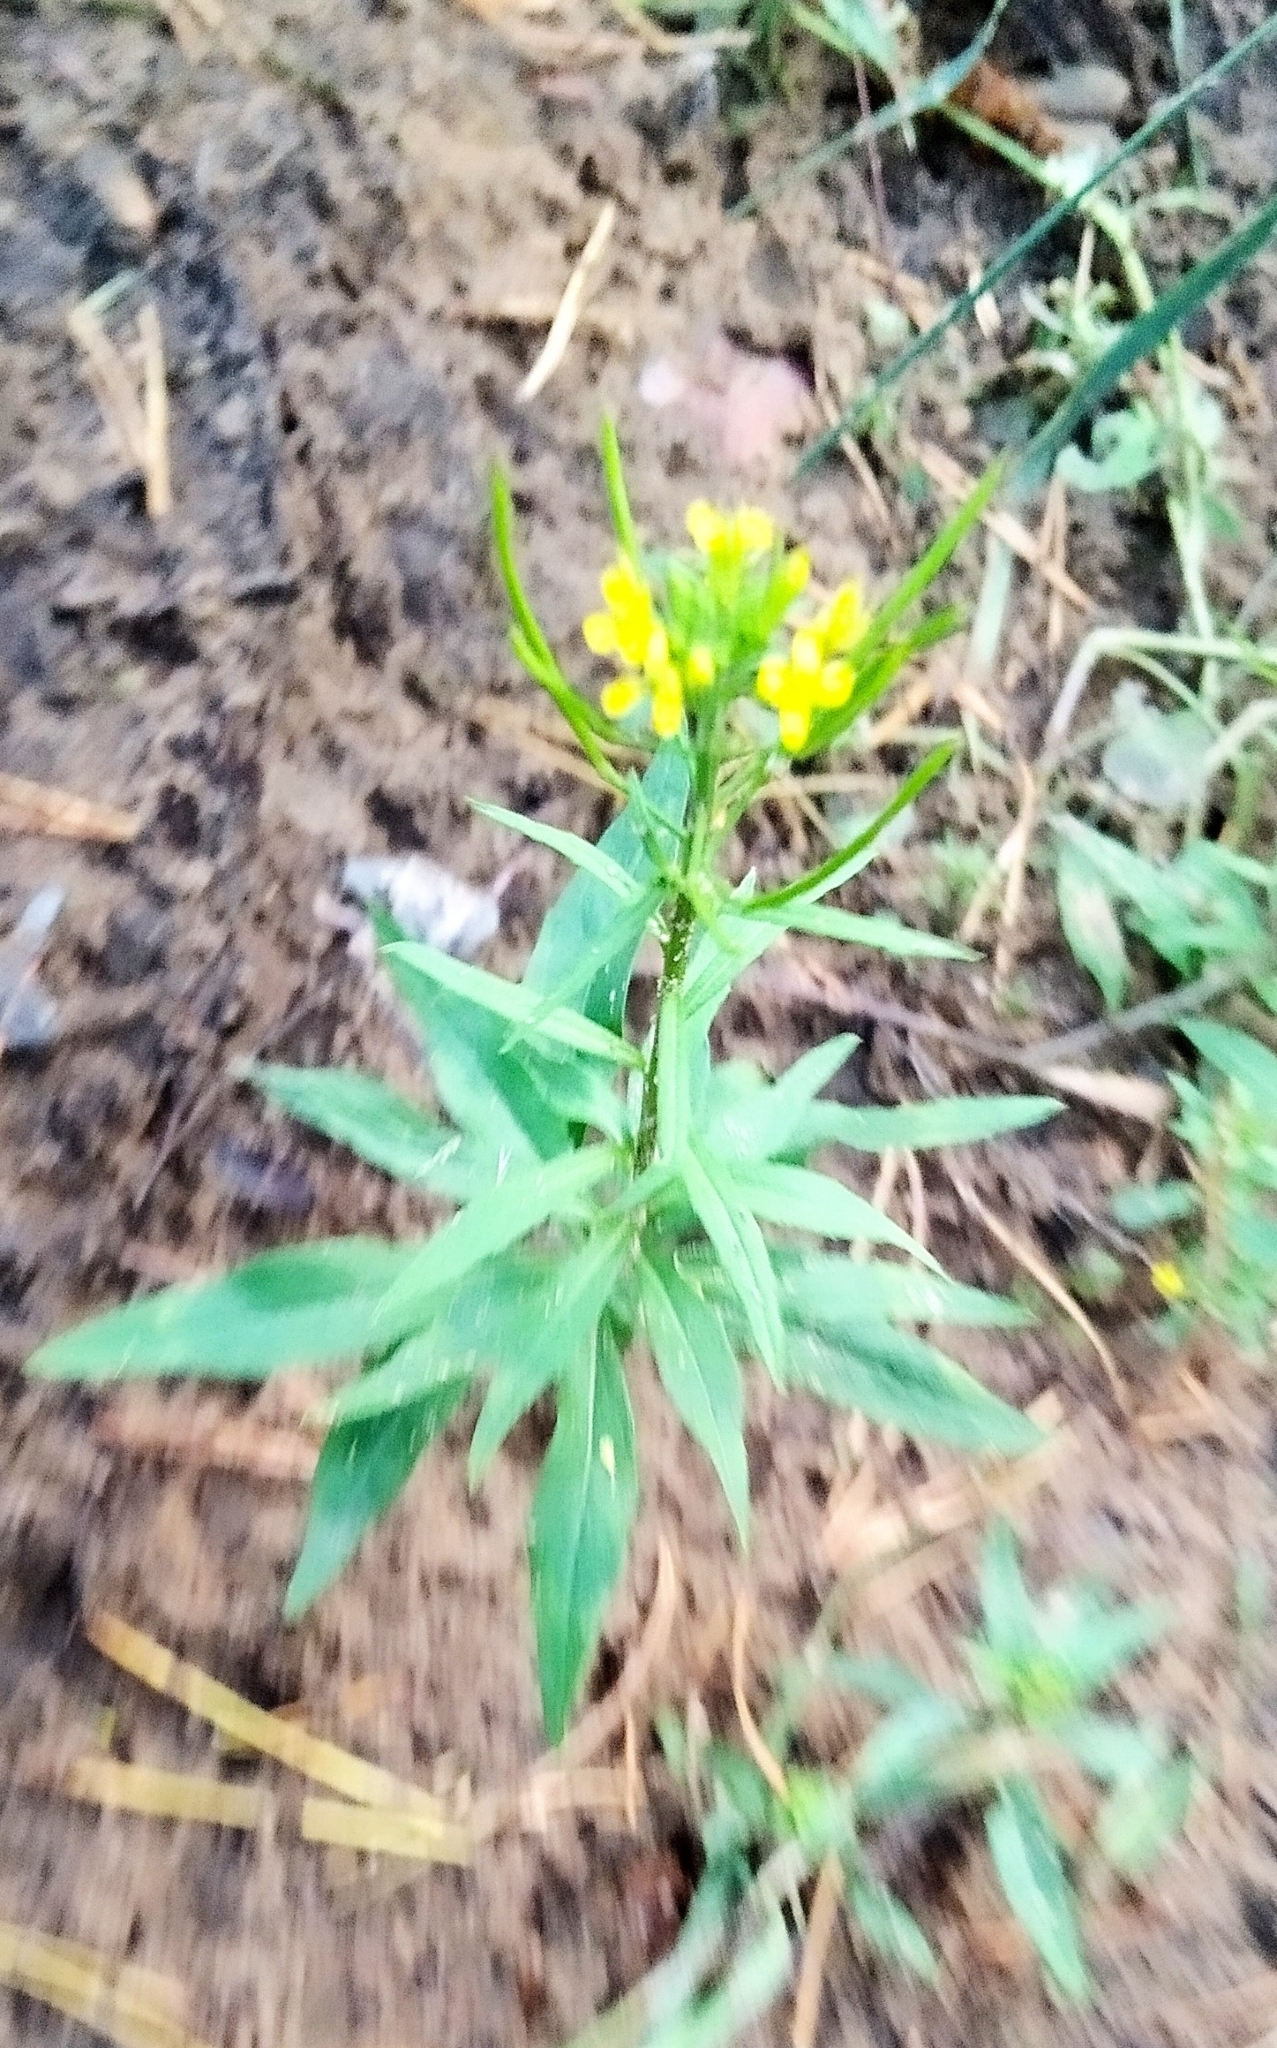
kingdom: Plantae
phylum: Tracheophyta
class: Magnoliopsida
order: Brassicales
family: Brassicaceae
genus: Erysimum
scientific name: Erysimum cheiranthoides
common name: Treacle mustard
